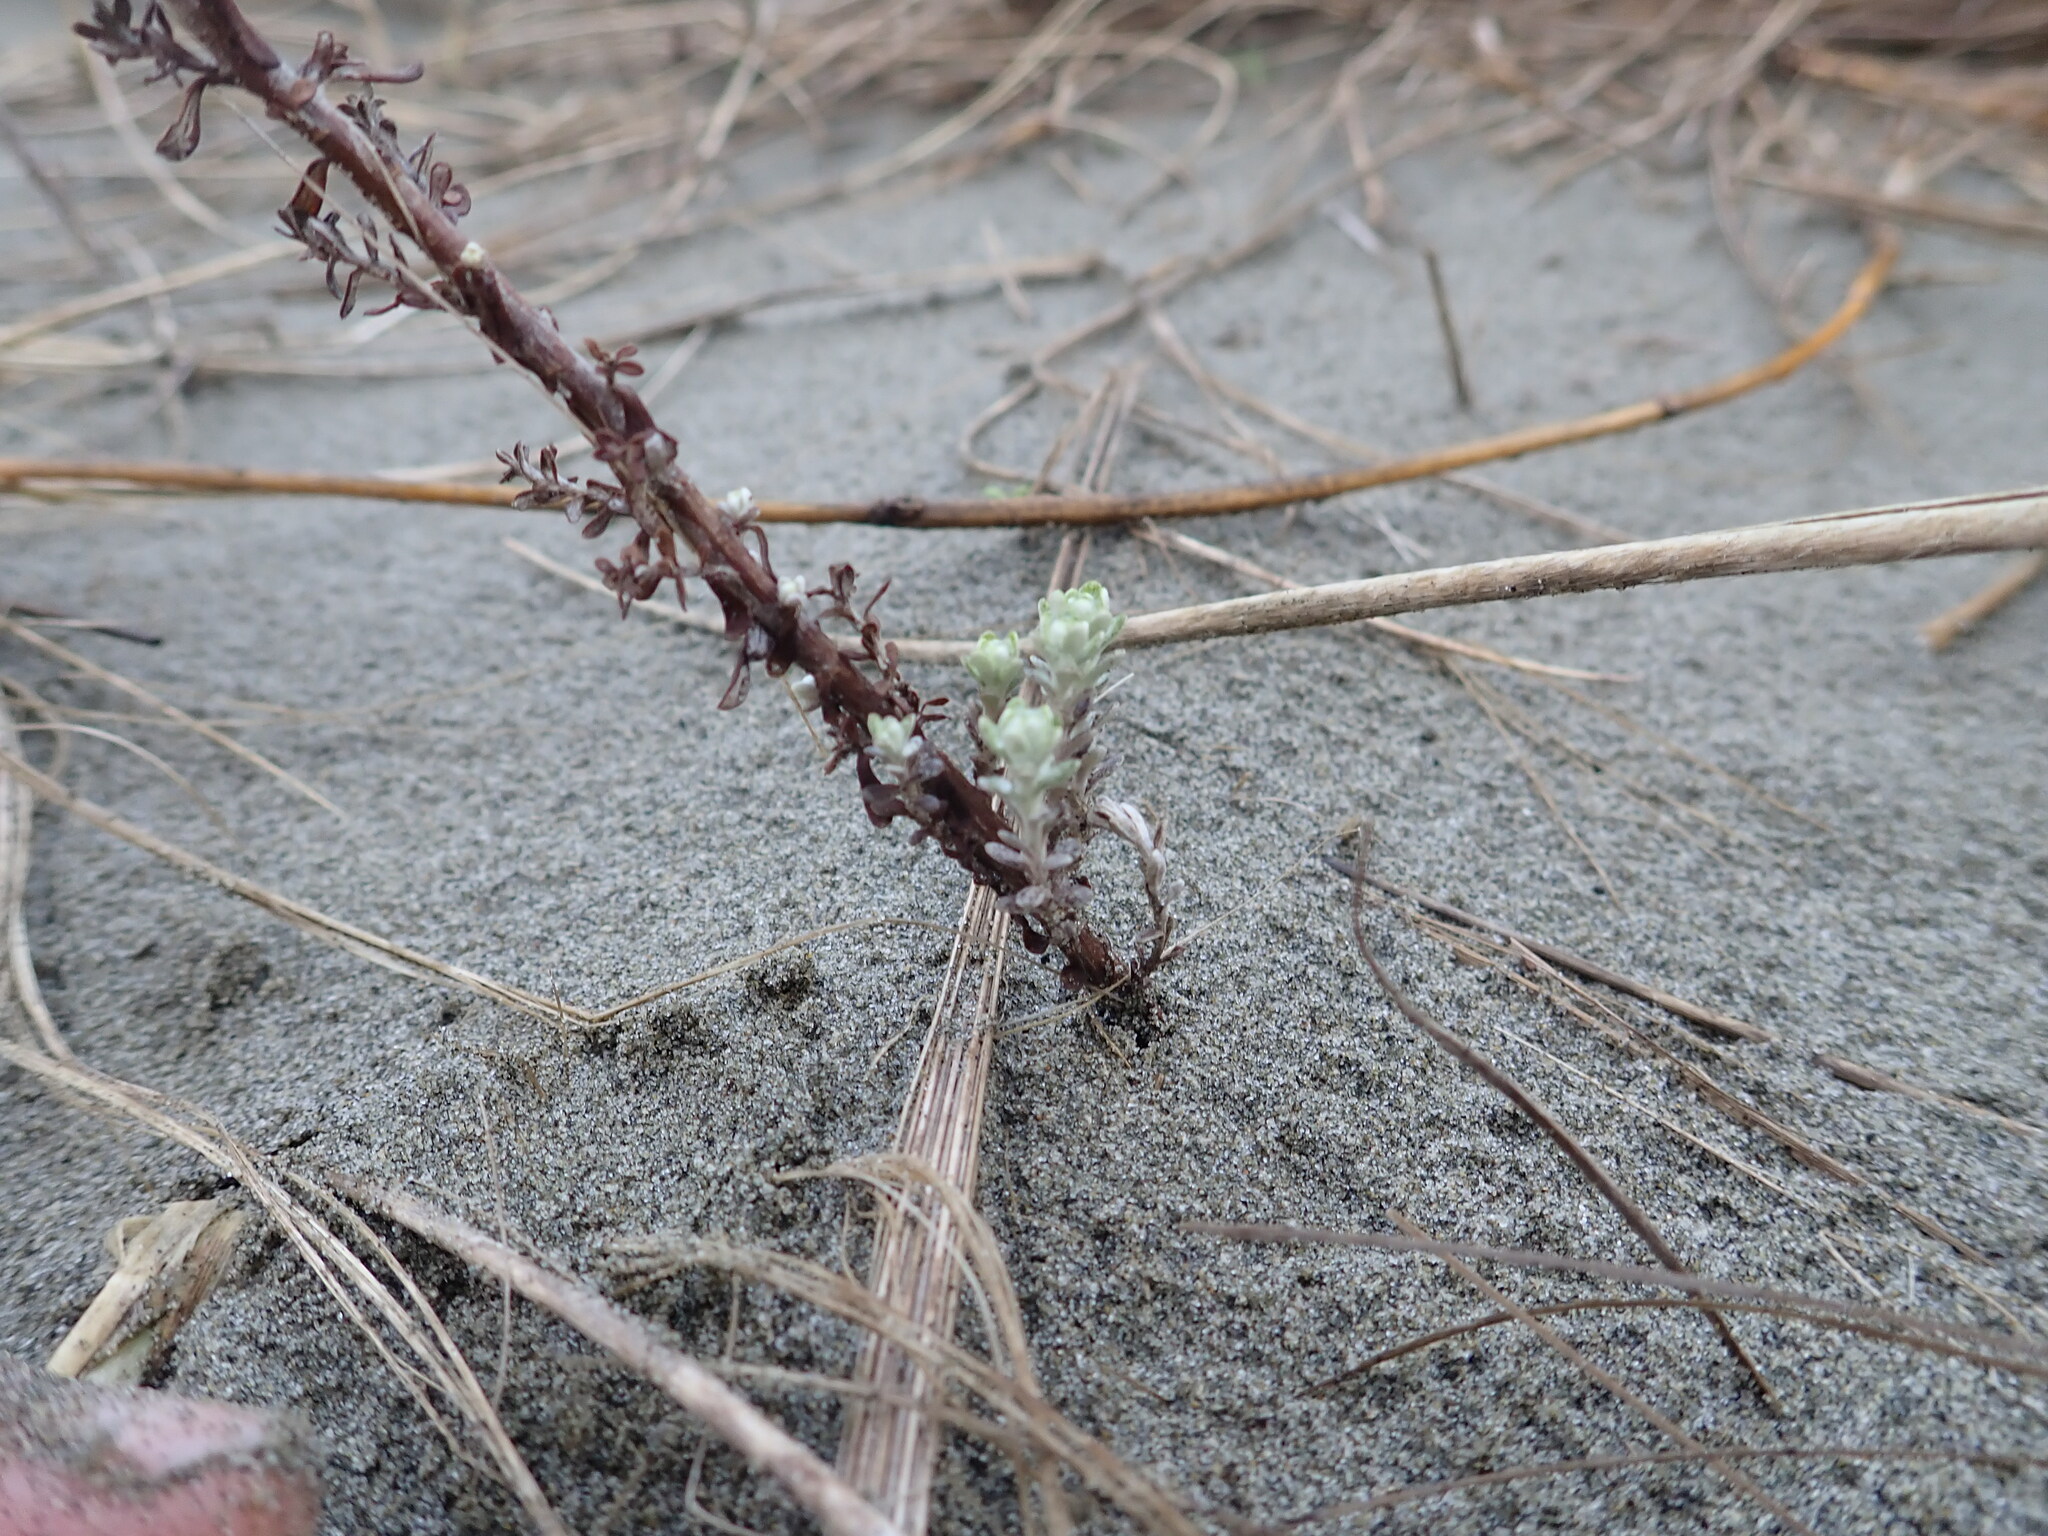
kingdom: Plantae
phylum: Tracheophyta
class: Magnoliopsida
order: Asterales
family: Asteraceae
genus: Ozothamnus
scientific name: Ozothamnus leptophyllus
